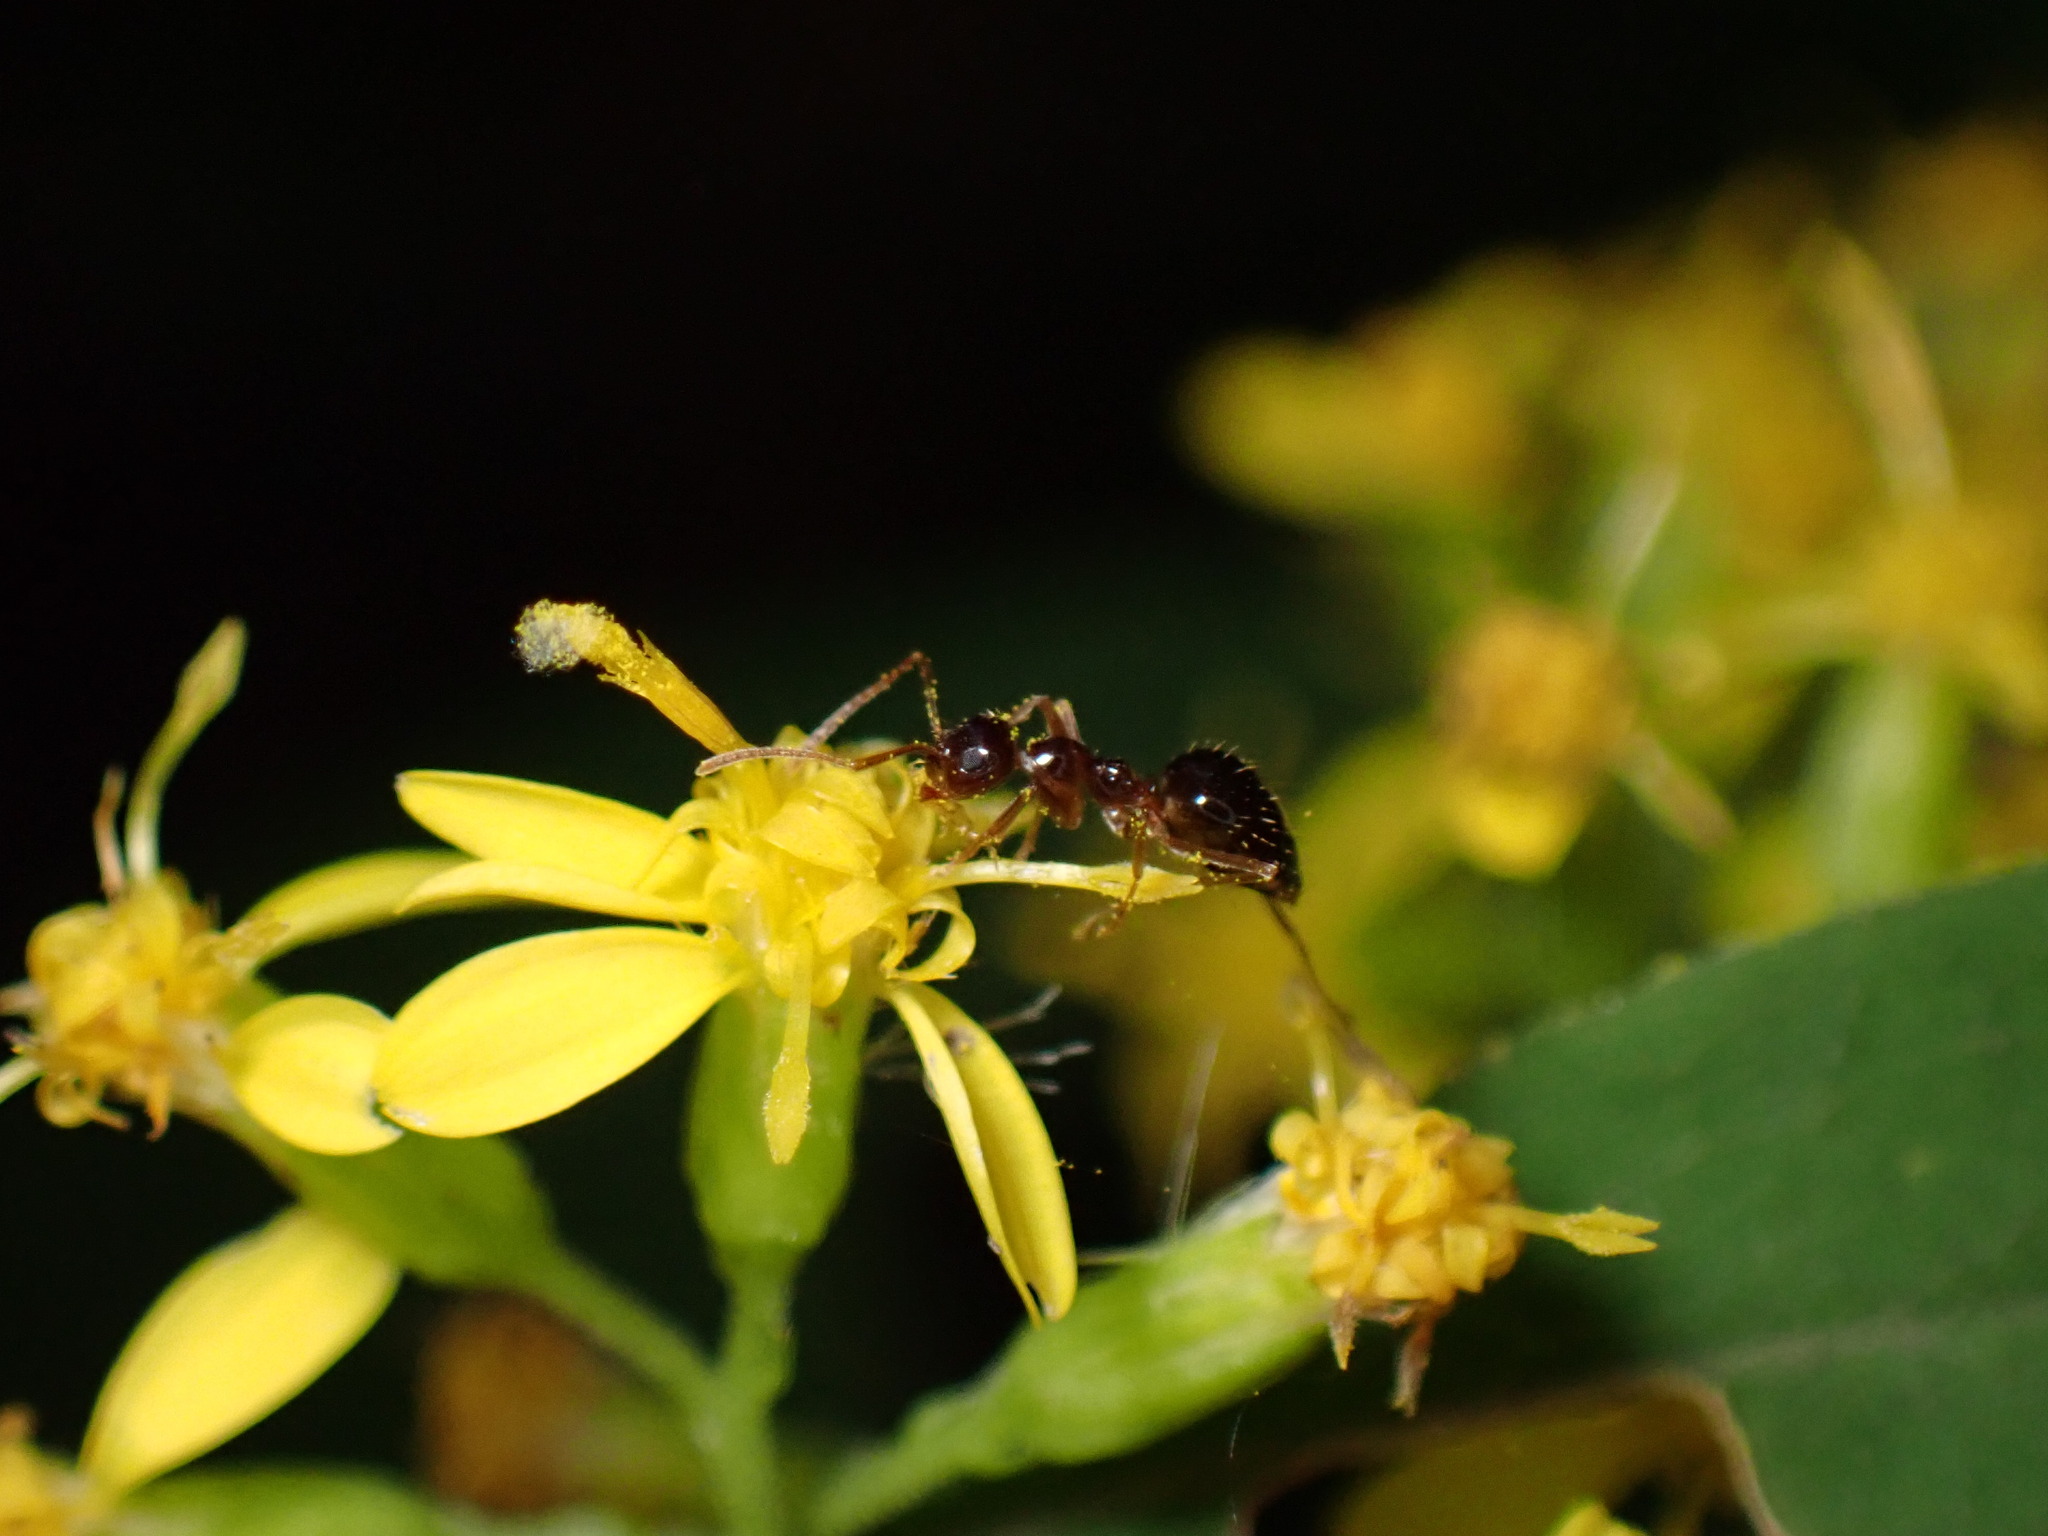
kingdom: Animalia
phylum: Arthropoda
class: Insecta
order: Hymenoptera
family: Formicidae
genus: Prenolepis
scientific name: Prenolepis imparis
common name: Small honey ant
